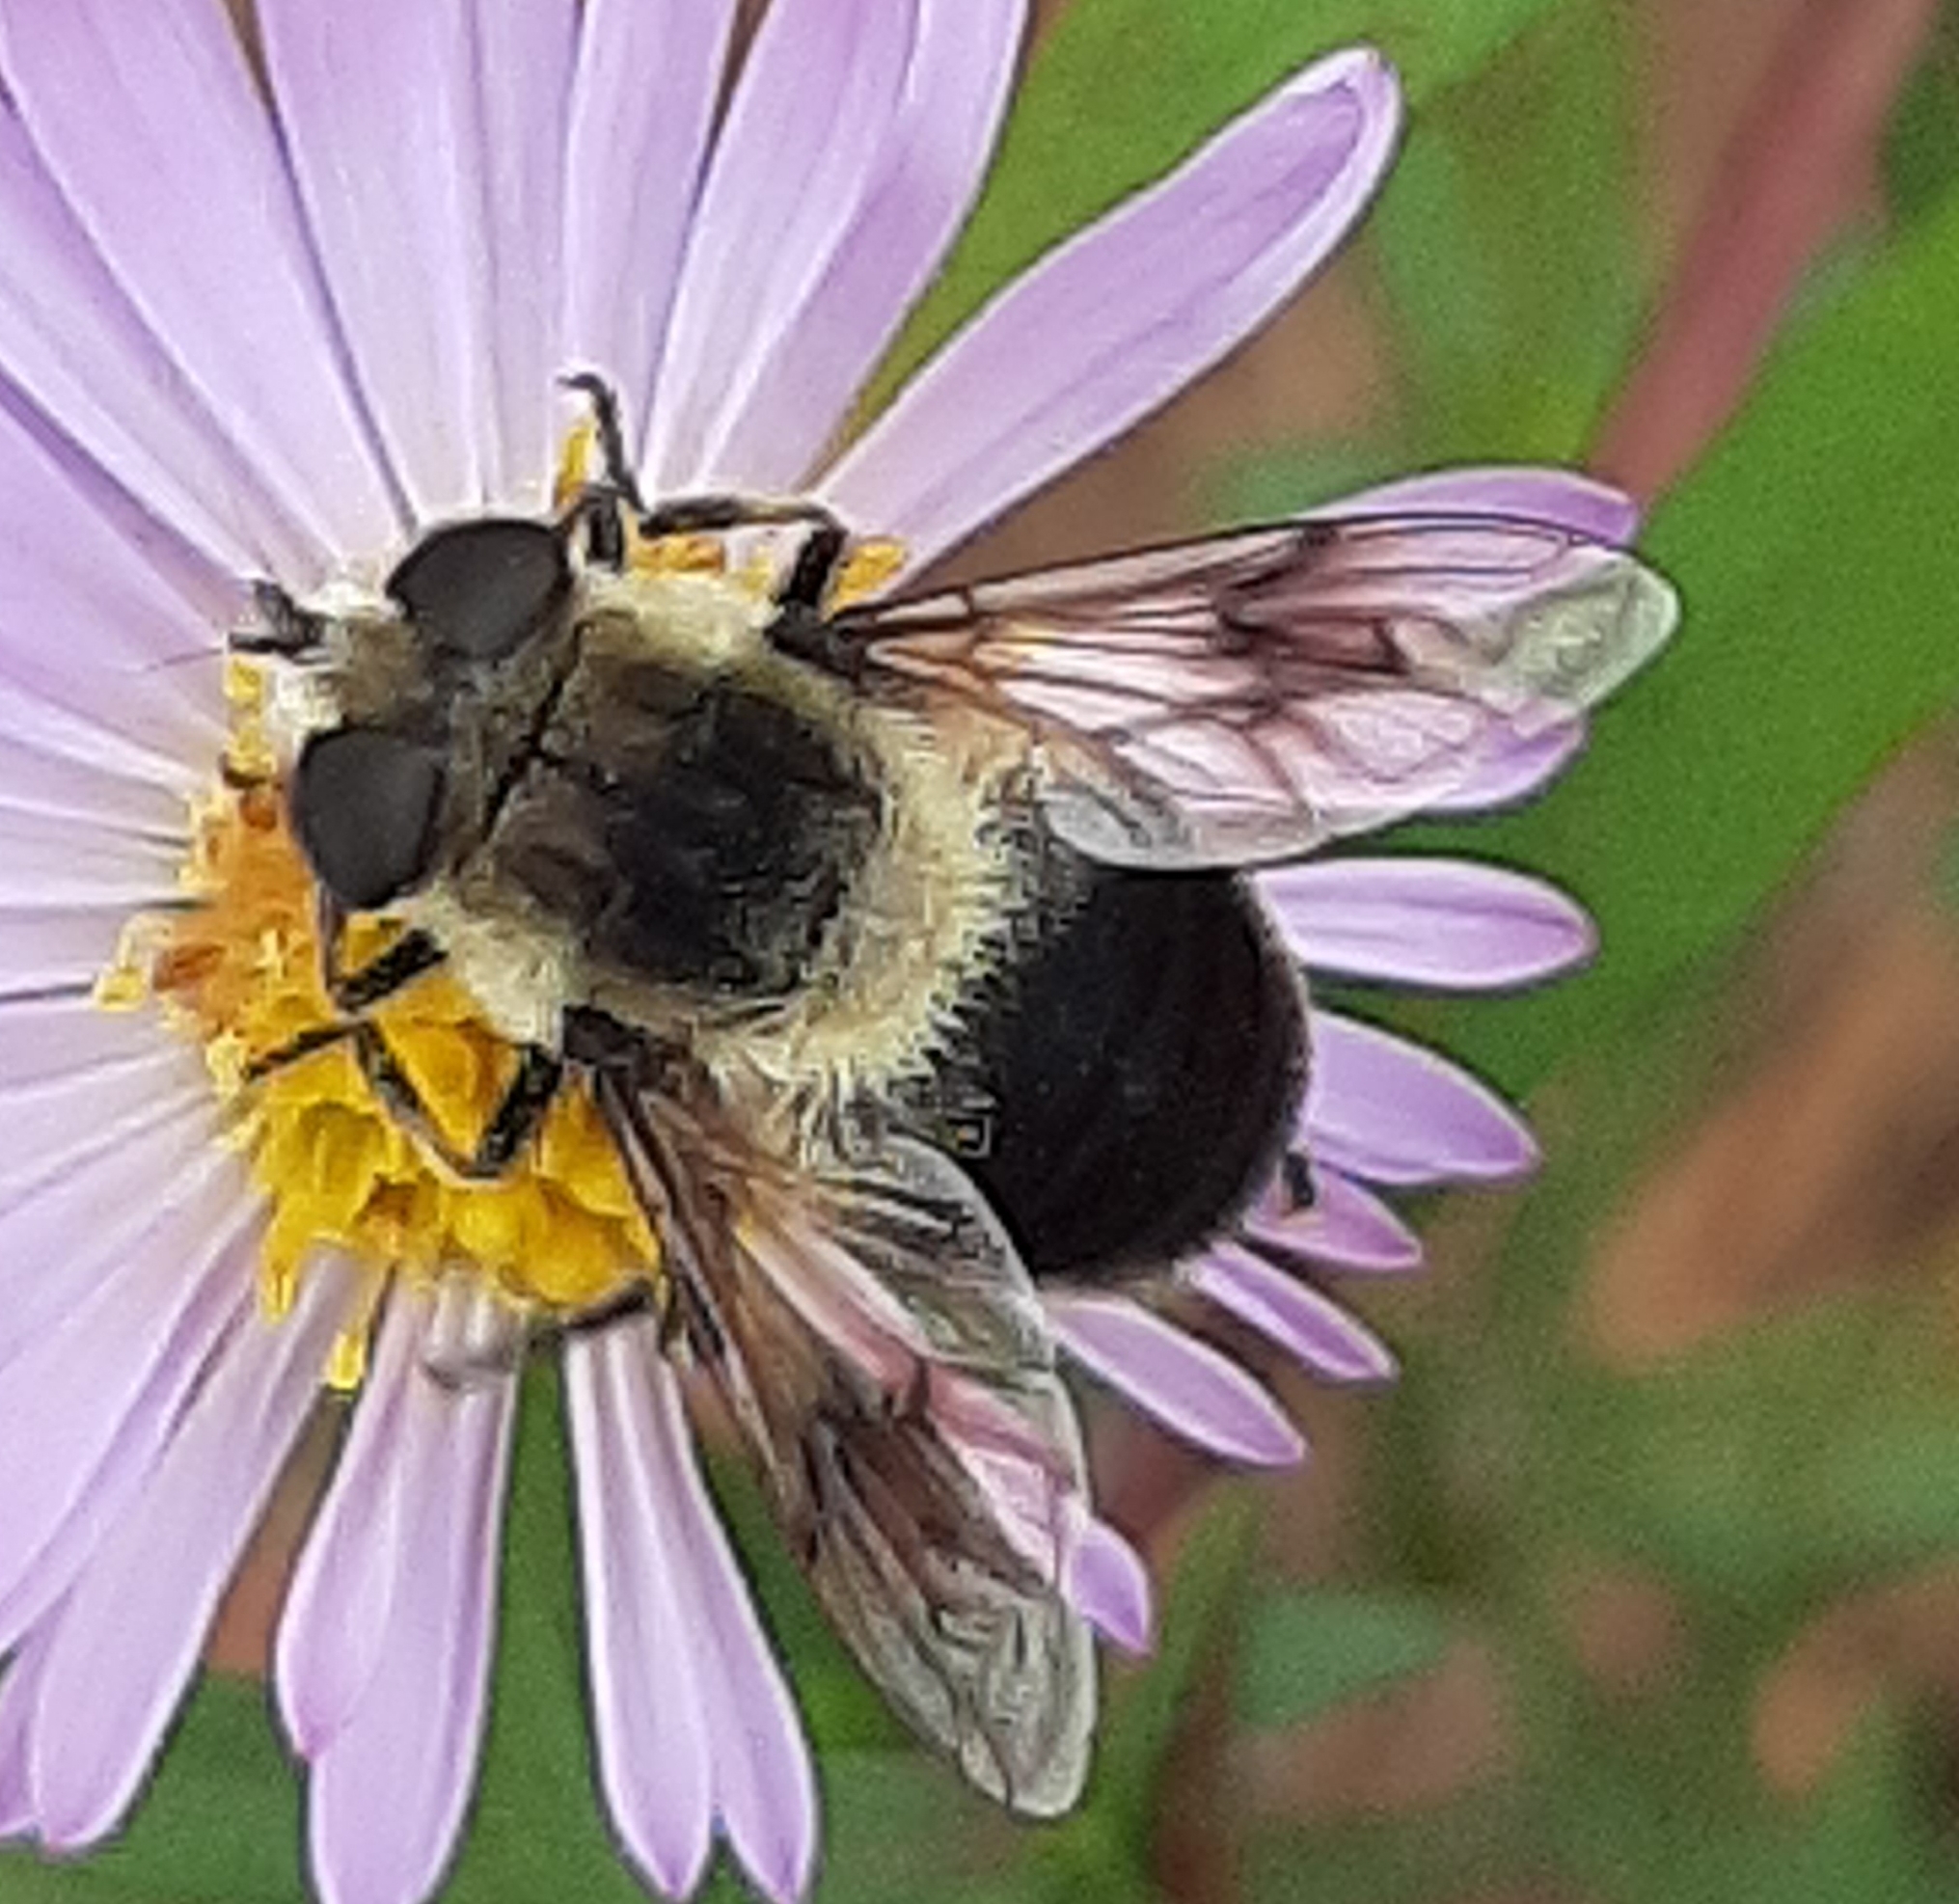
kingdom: Animalia
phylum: Arthropoda
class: Insecta
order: Diptera
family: Syrphidae
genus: Eristalis
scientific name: Eristalis anthophorina
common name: Orange-spotted drone fly
